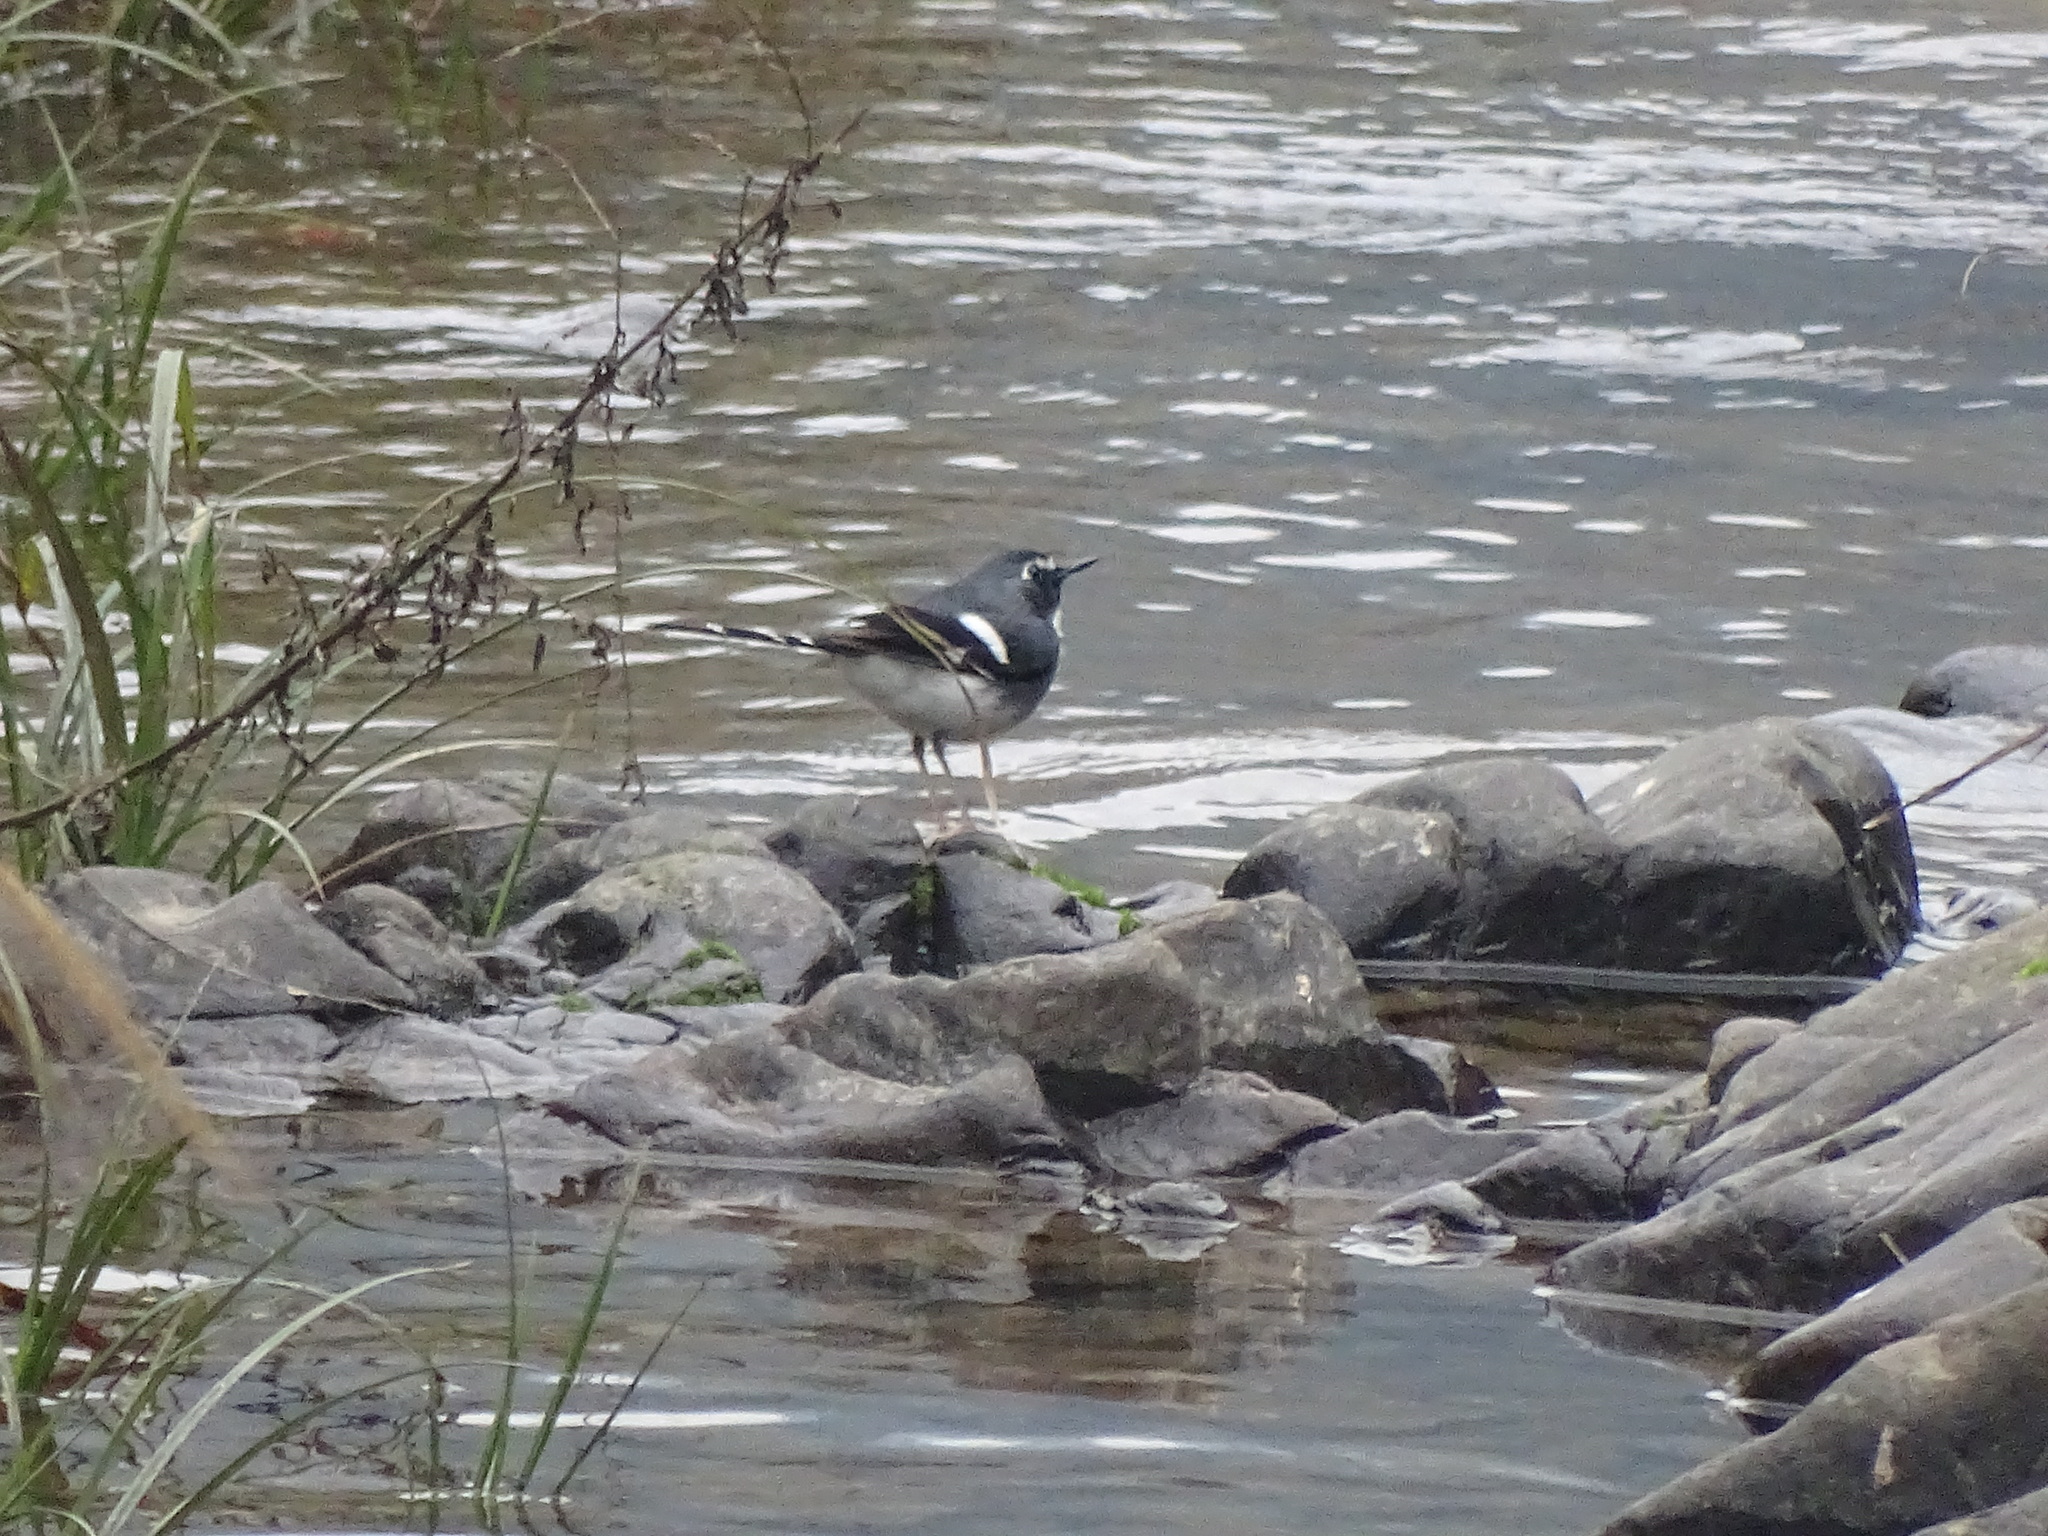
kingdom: Animalia
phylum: Chordata
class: Aves
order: Passeriformes
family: Muscicapidae
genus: Enicurus
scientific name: Enicurus schistaceus
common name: Slaty-backed forktail
